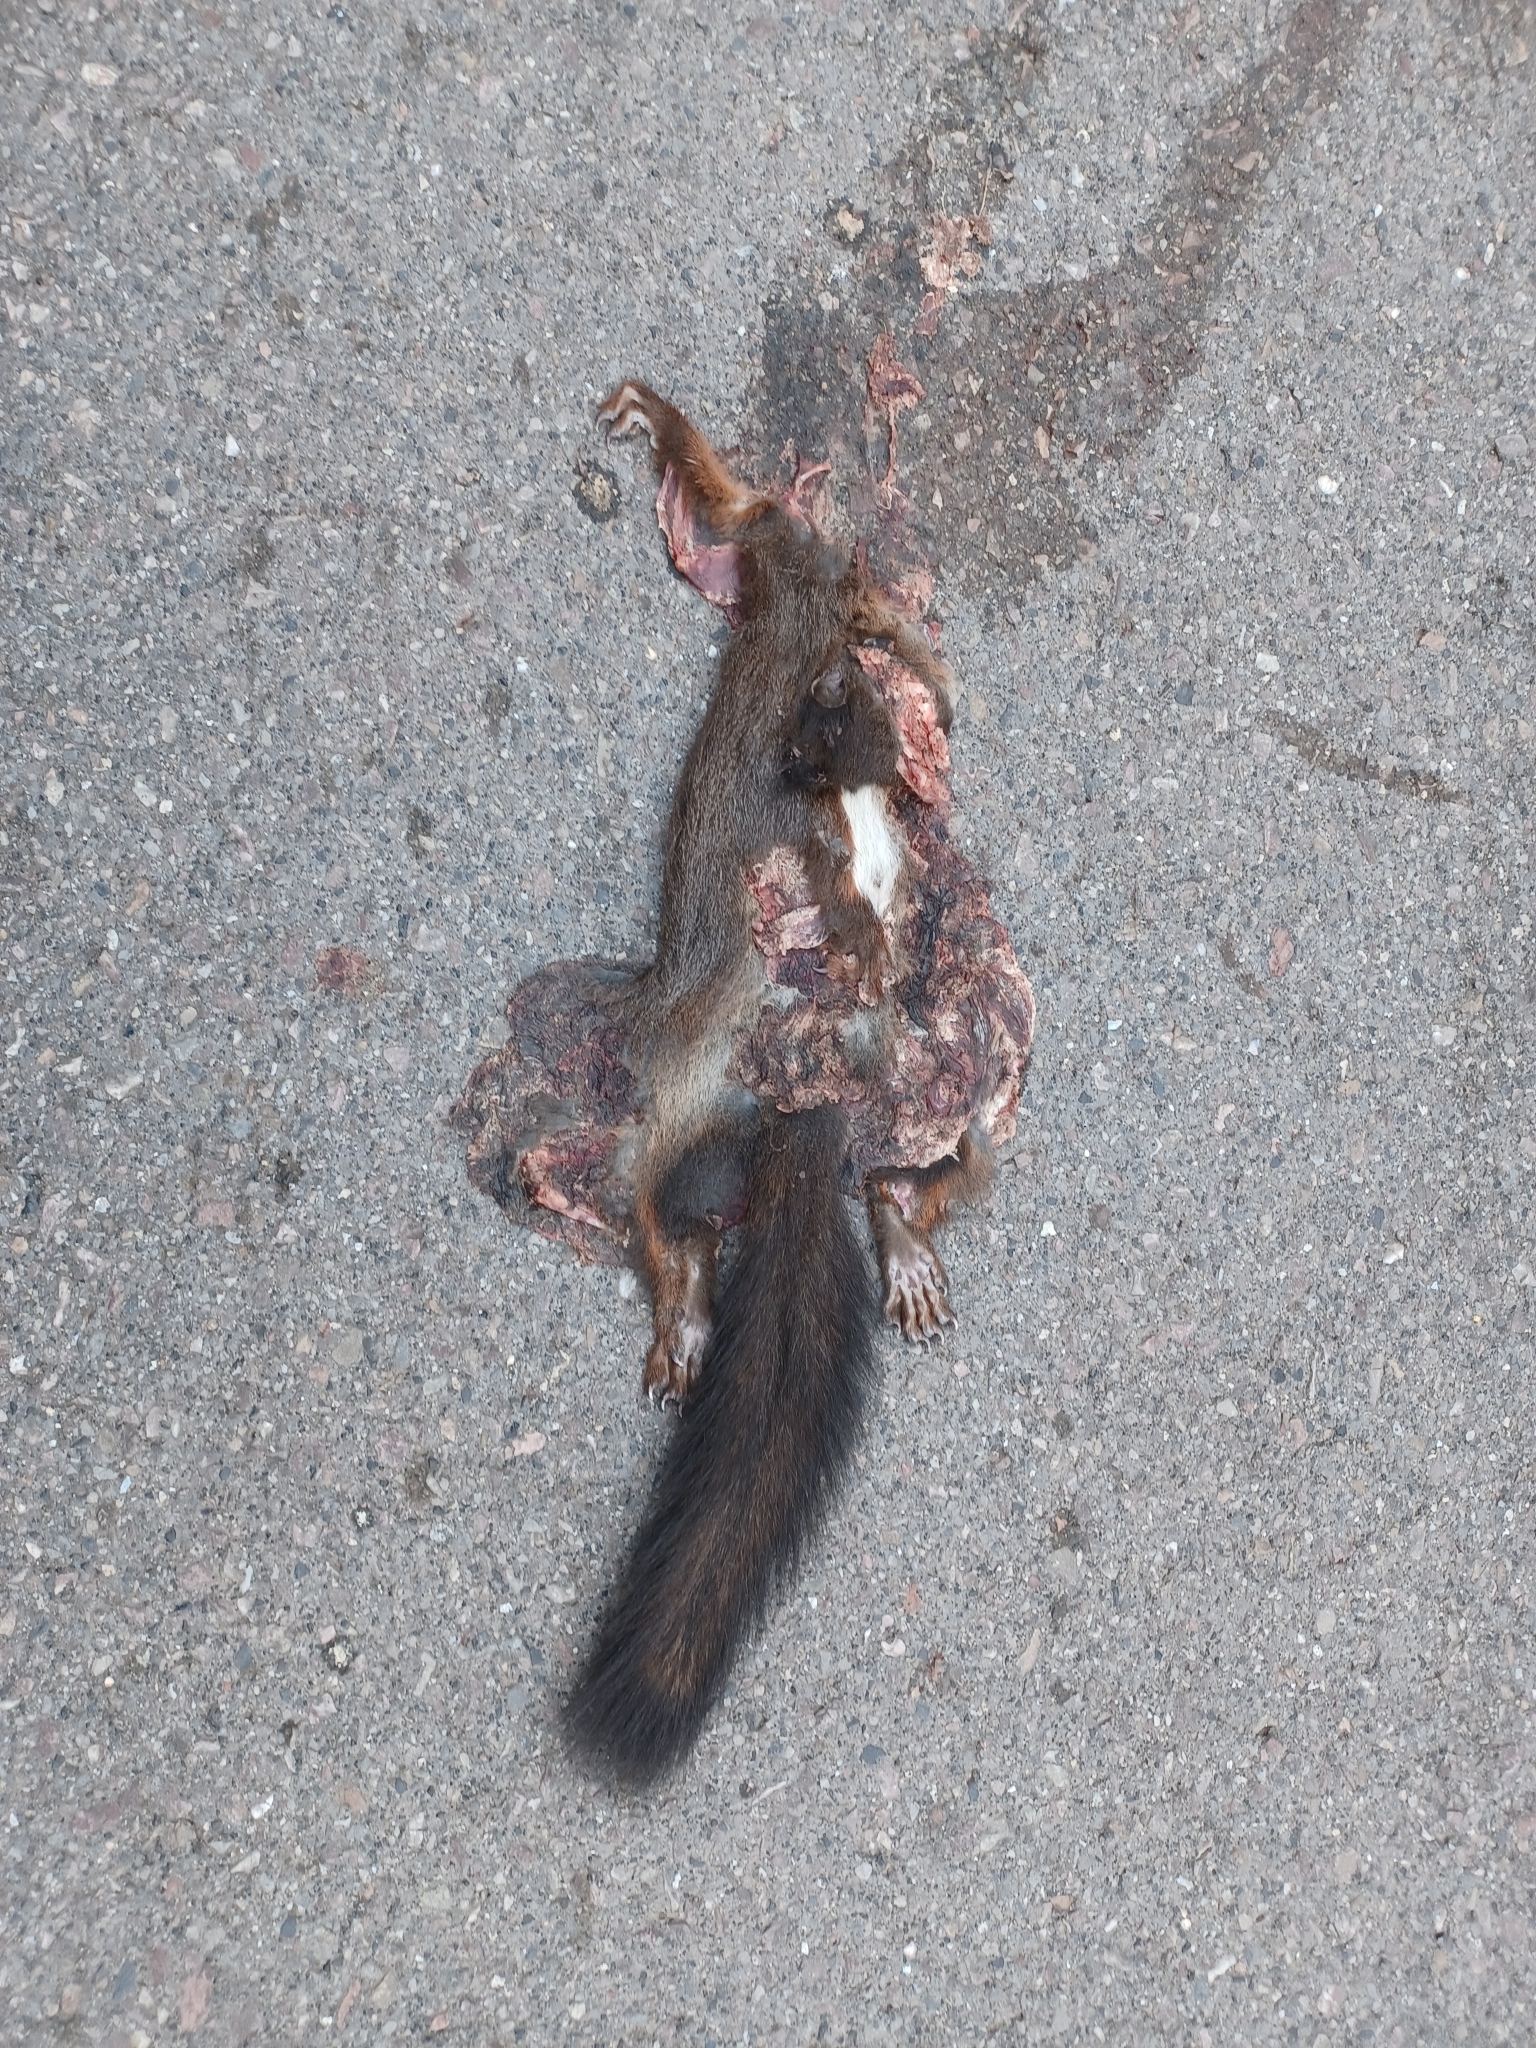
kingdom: Animalia
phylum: Chordata
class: Mammalia
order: Rodentia
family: Sciuridae
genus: Sciurus
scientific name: Sciurus vulgaris
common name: Eurasian red squirrel
